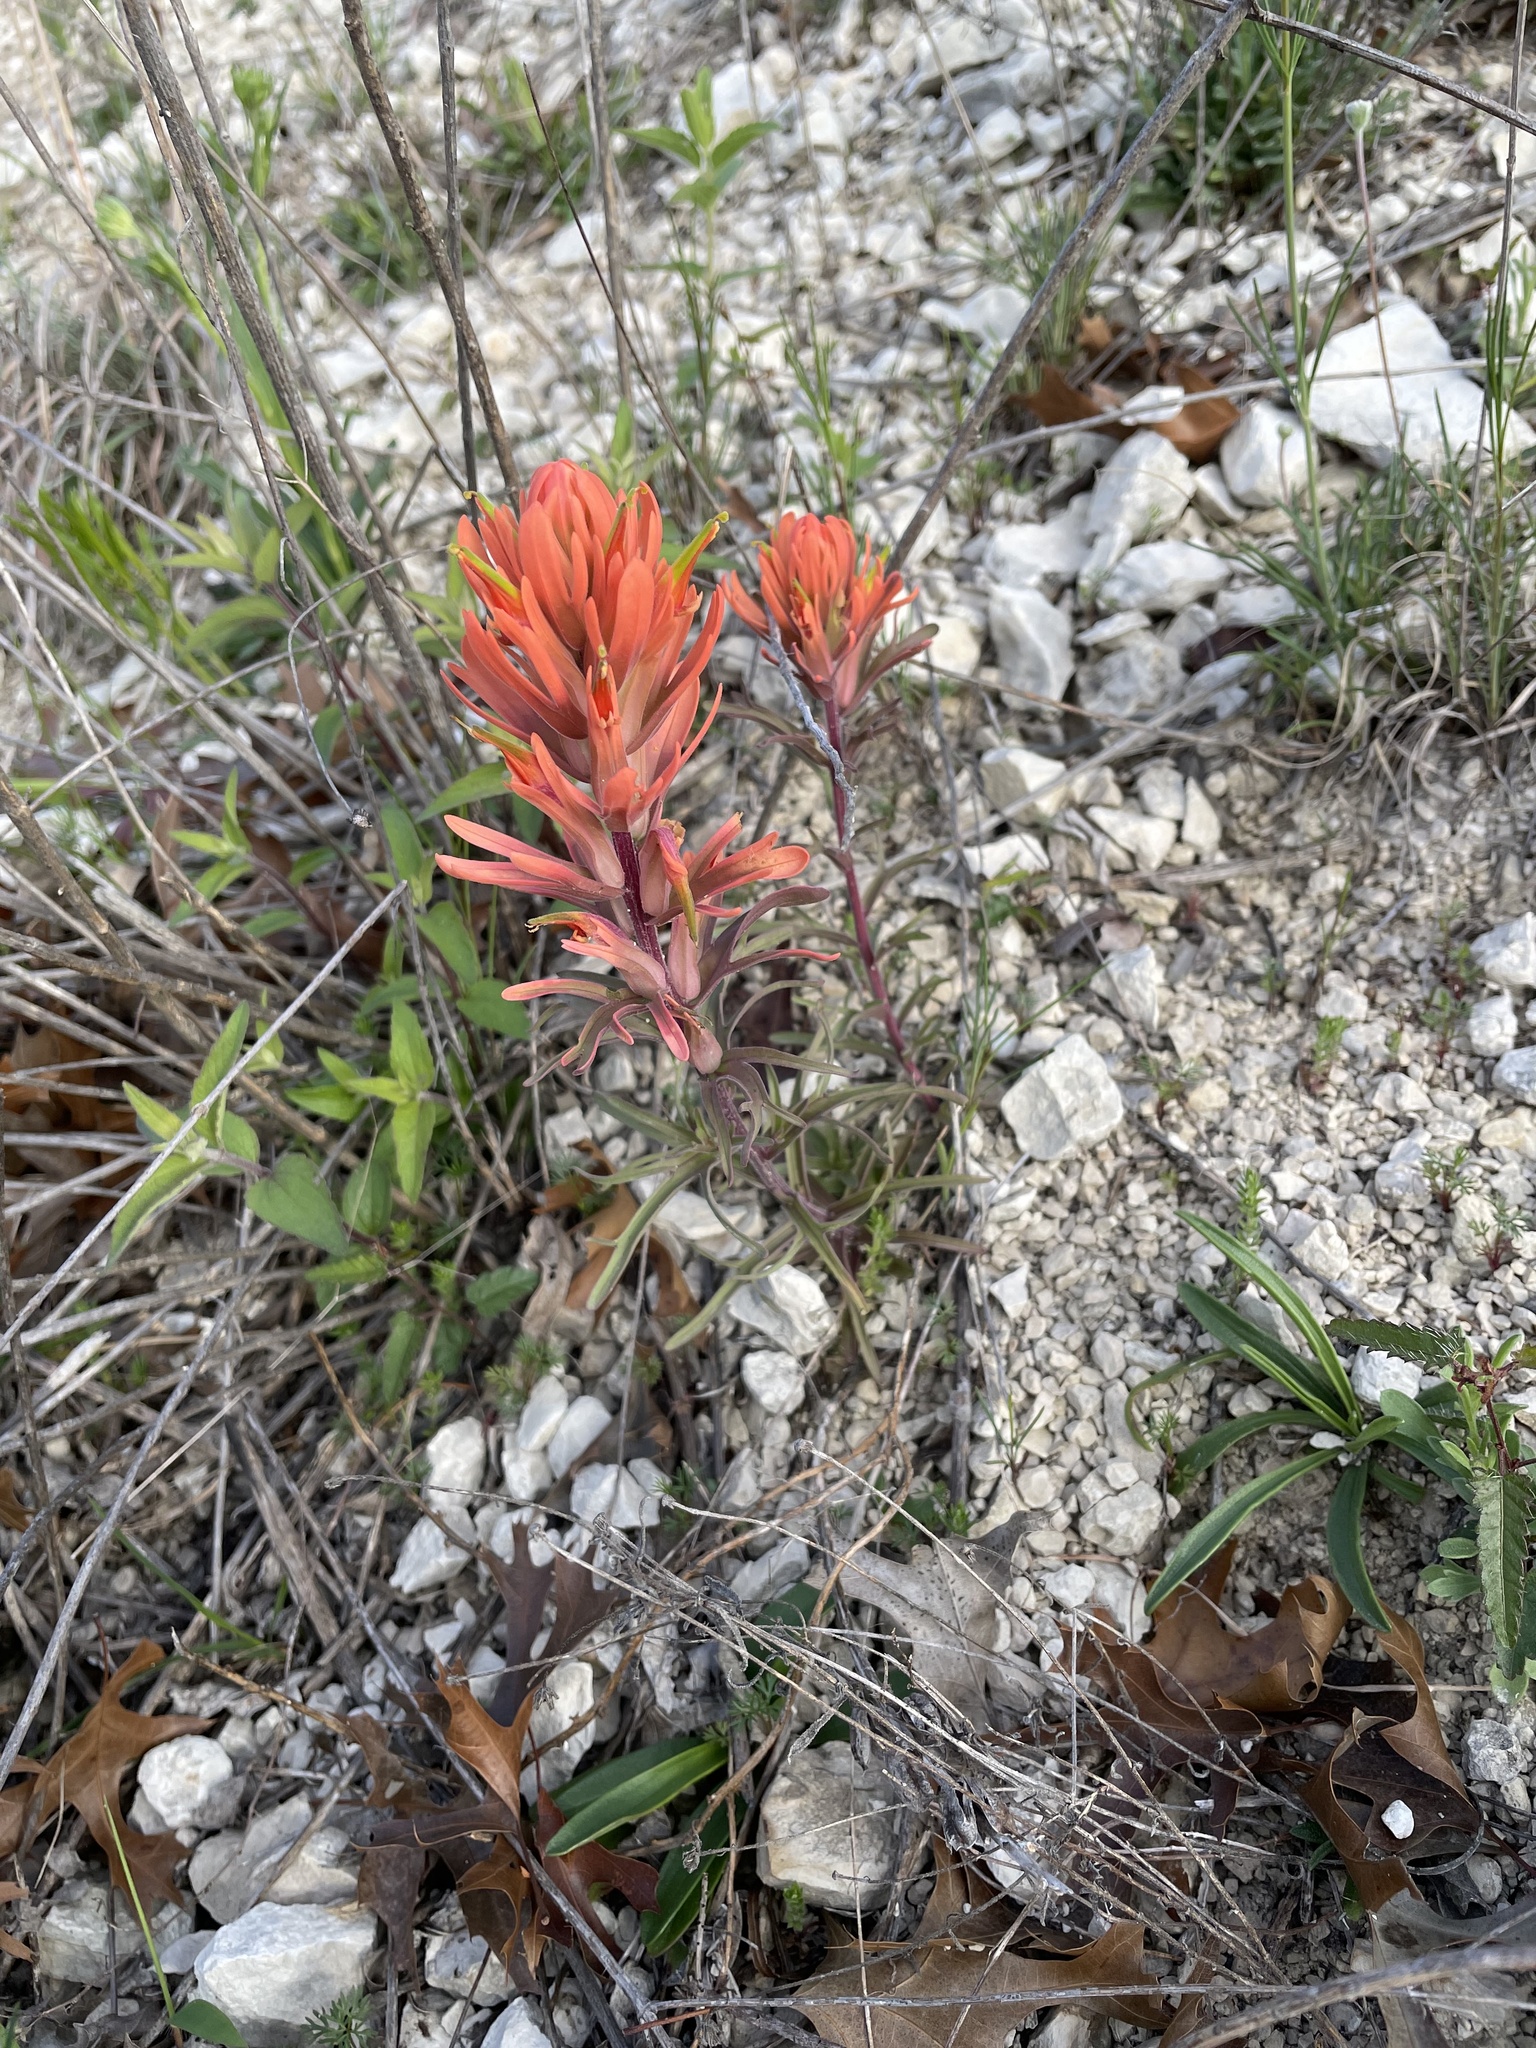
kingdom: Plantae
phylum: Tracheophyta
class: Magnoliopsida
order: Lamiales
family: Orobanchaceae
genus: Castilleja
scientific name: Castilleja lindheimeri
